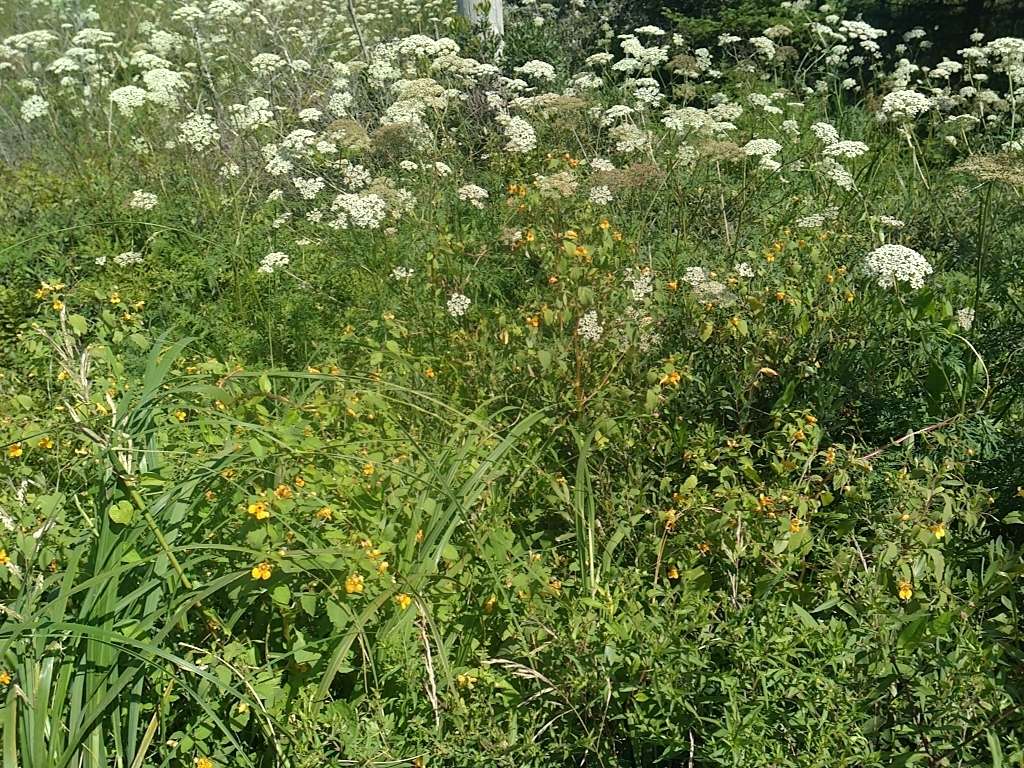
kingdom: Plantae
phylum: Tracheophyta
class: Magnoliopsida
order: Ericales
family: Balsaminaceae
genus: Impatiens
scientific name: Impatiens capensis
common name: Orange balsam
